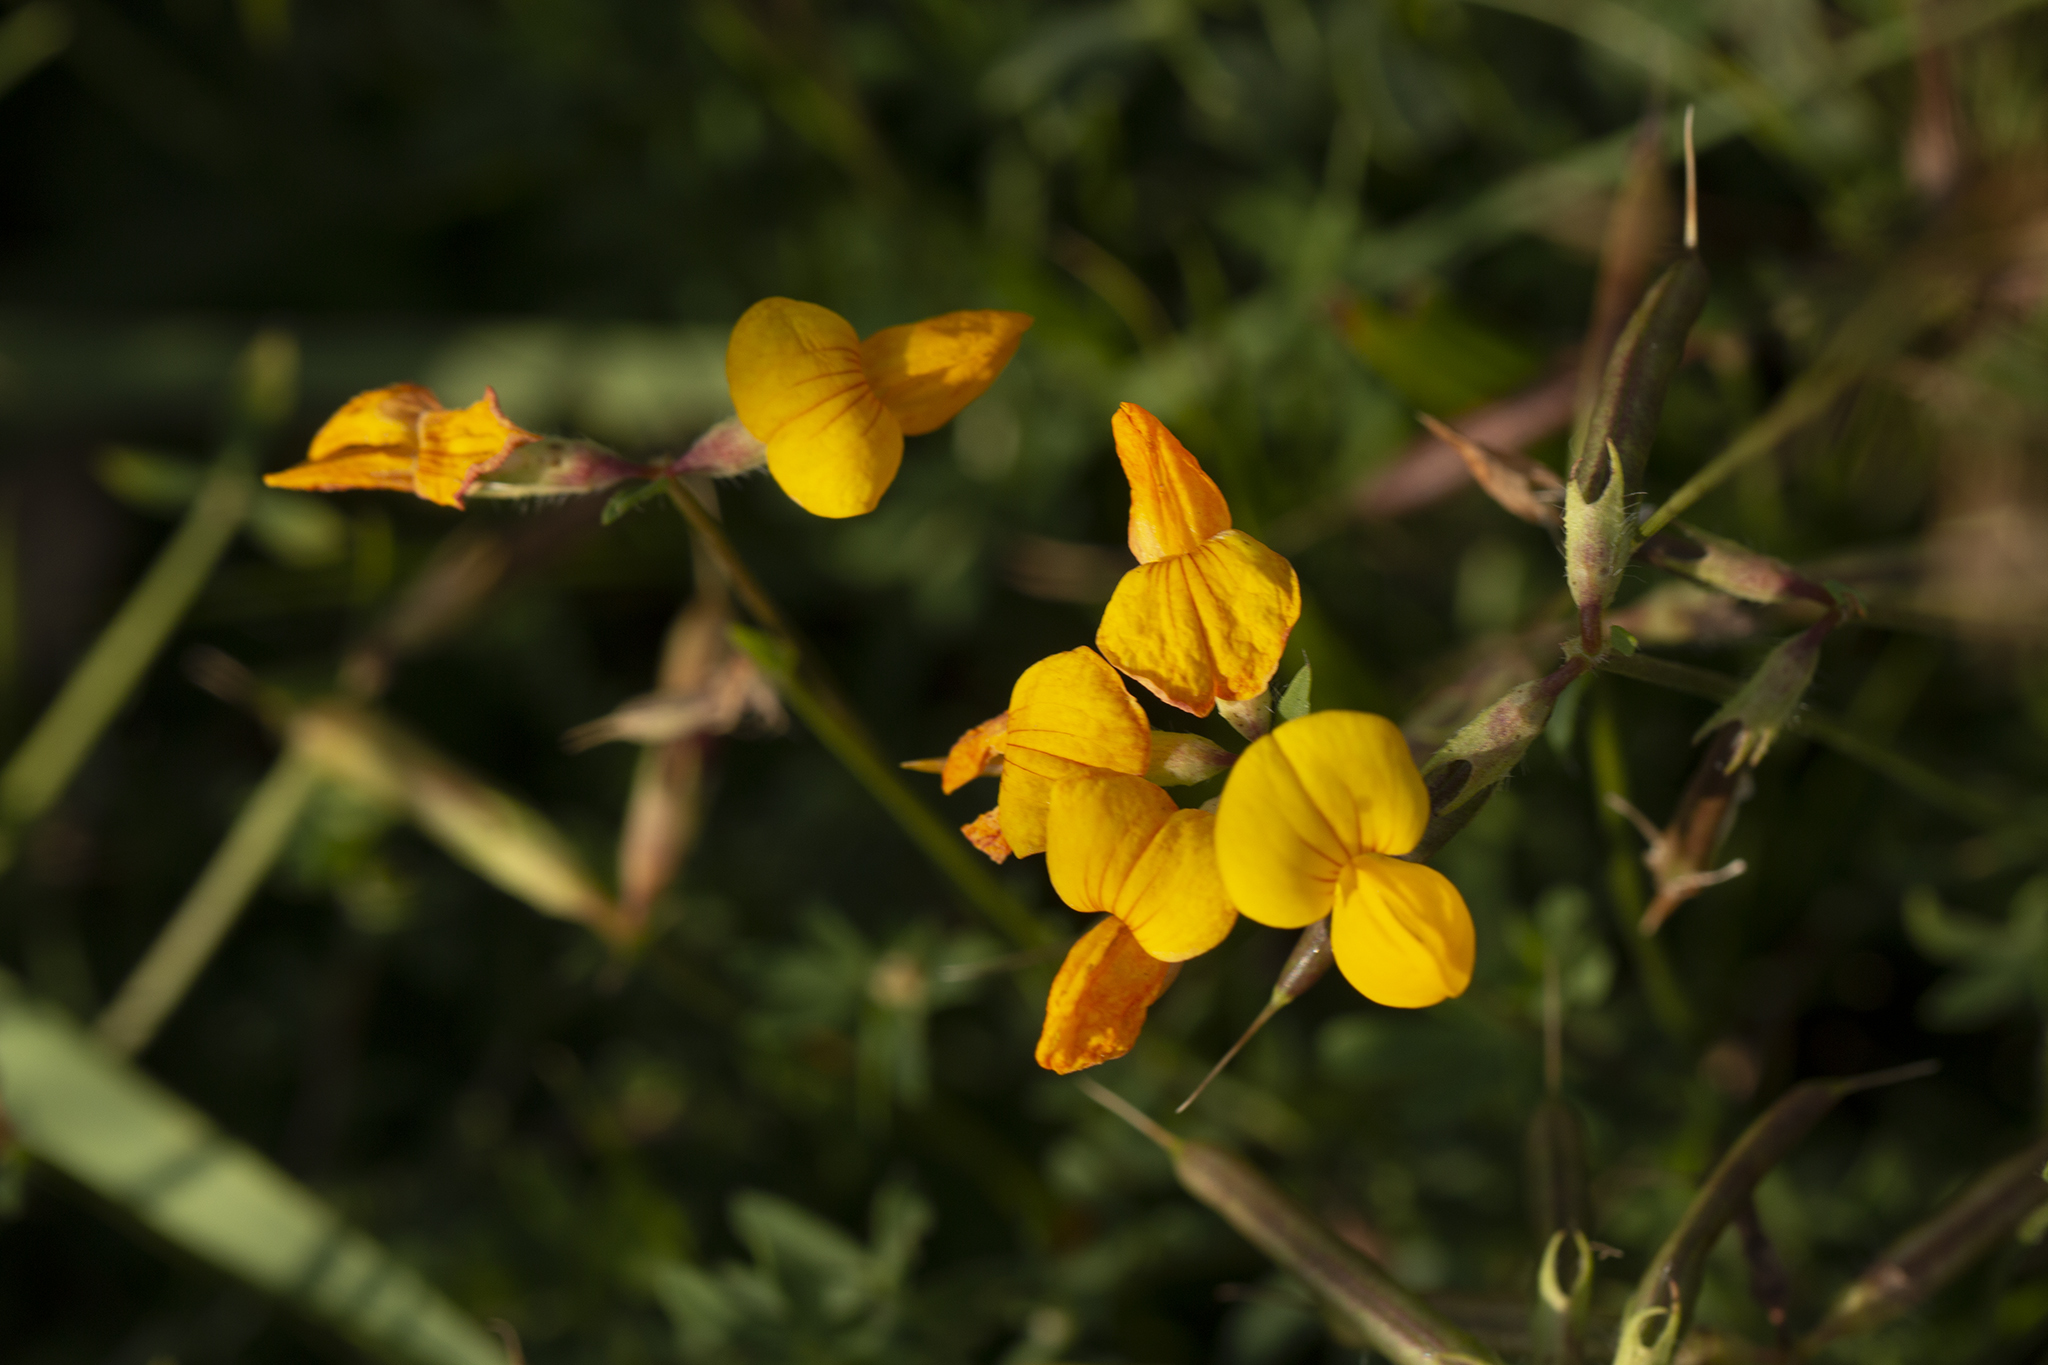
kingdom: Plantae
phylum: Tracheophyta
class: Magnoliopsida
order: Fabales
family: Fabaceae
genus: Lotus
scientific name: Lotus corniculatus
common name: Common bird's-foot-trefoil
